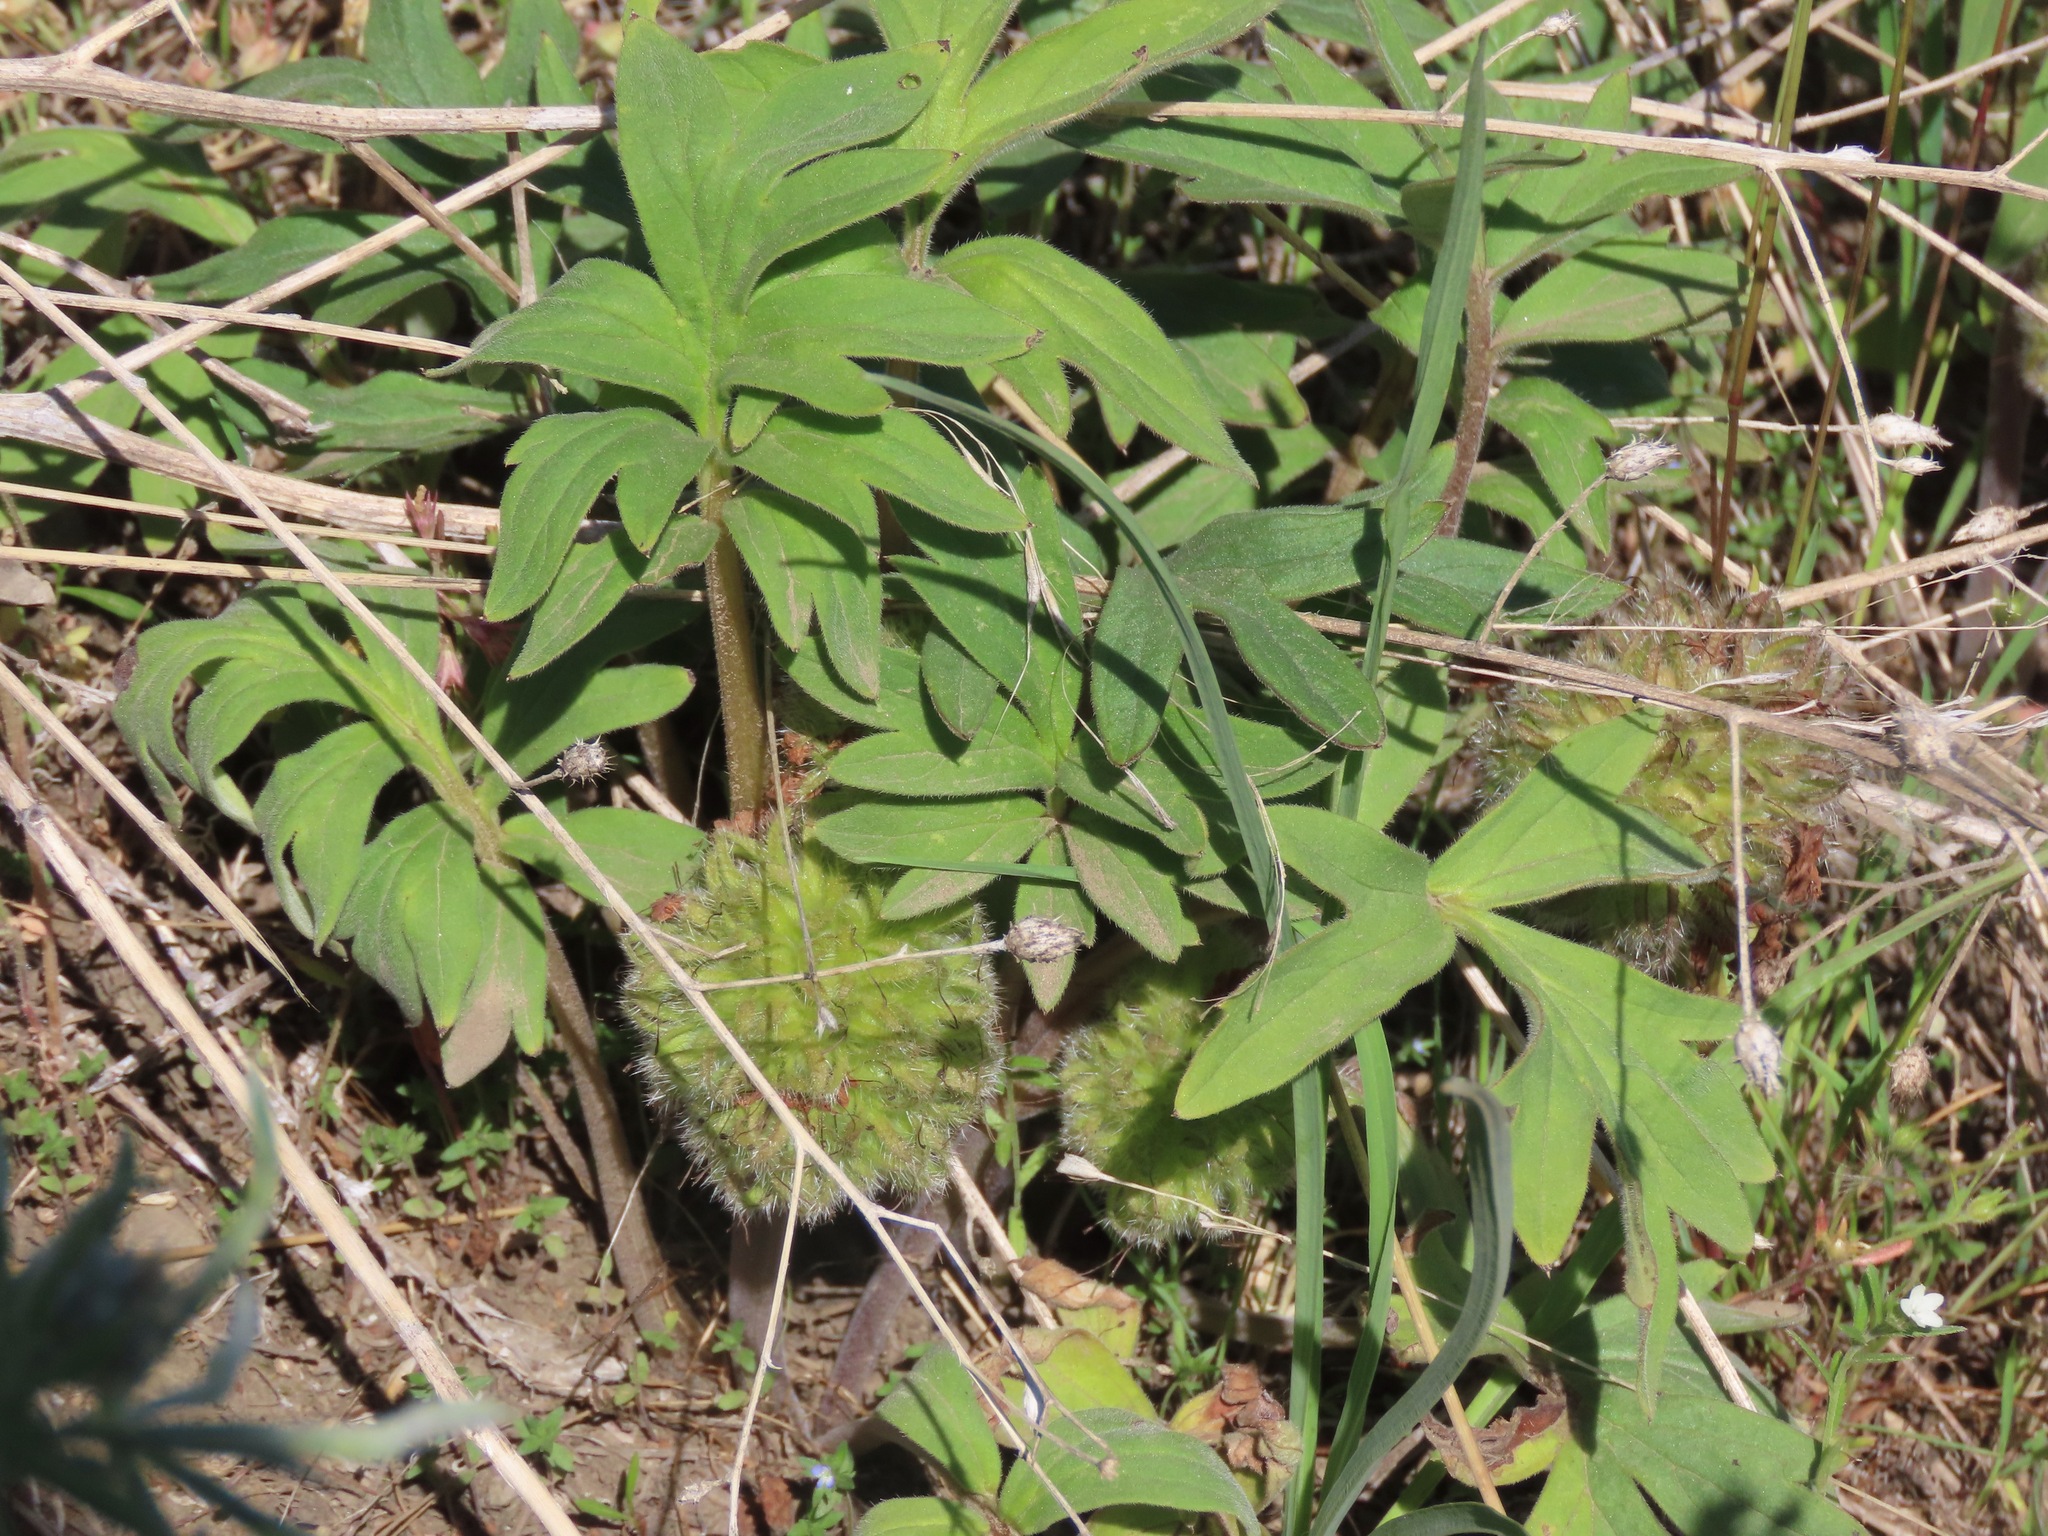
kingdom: Plantae
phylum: Tracheophyta
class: Magnoliopsida
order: Boraginales
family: Hydrophyllaceae
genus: Hydrophyllum
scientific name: Hydrophyllum capitatum
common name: Woollen-breeches
